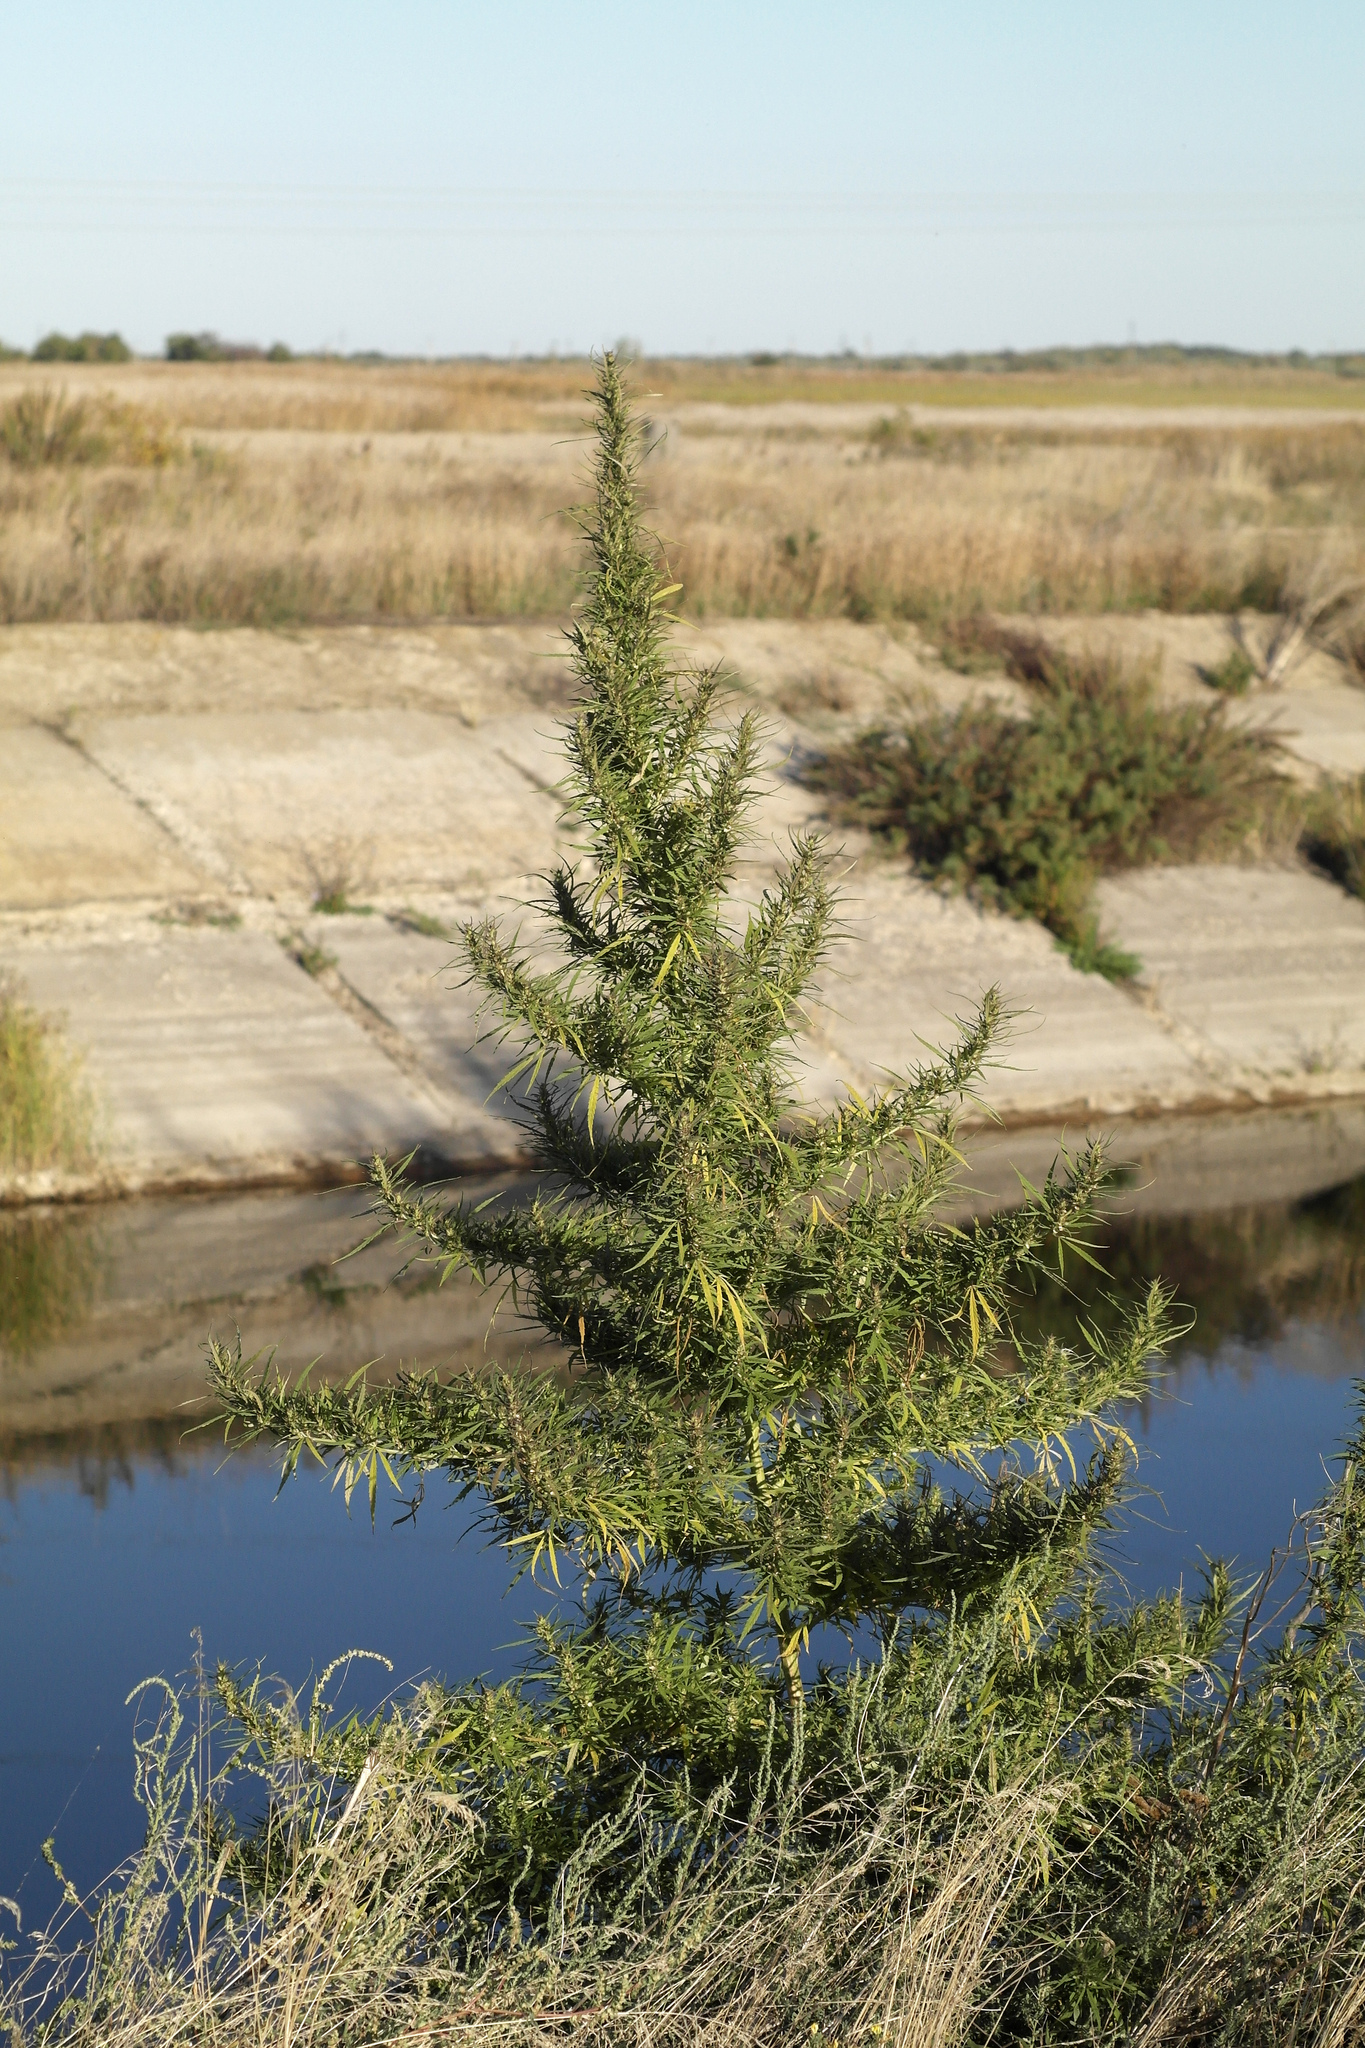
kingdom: Plantae
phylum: Tracheophyta
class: Magnoliopsida
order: Rosales
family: Cannabaceae
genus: Cannabis
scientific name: Cannabis sativa
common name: Hemp
